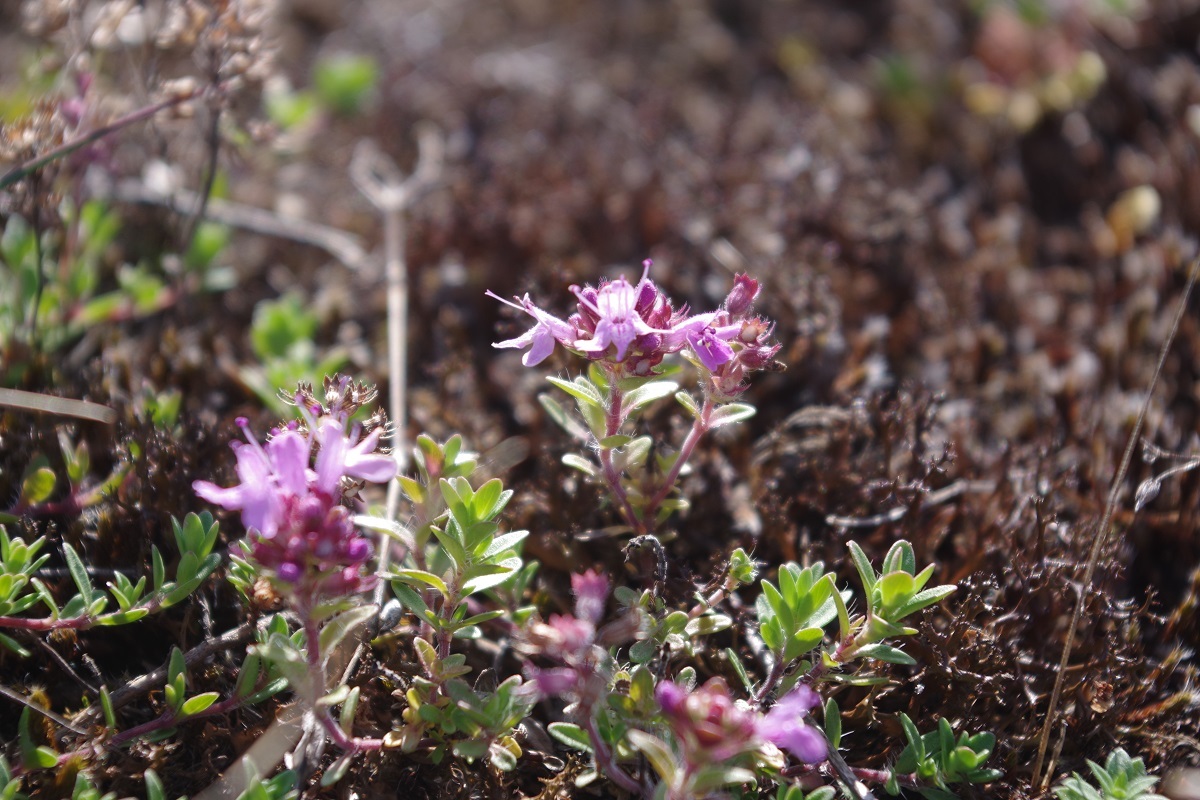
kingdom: Plantae
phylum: Tracheophyta
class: Magnoliopsida
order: Lamiales
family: Lamiaceae
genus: Thymus
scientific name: Thymus serpyllum
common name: Breckland thyme
